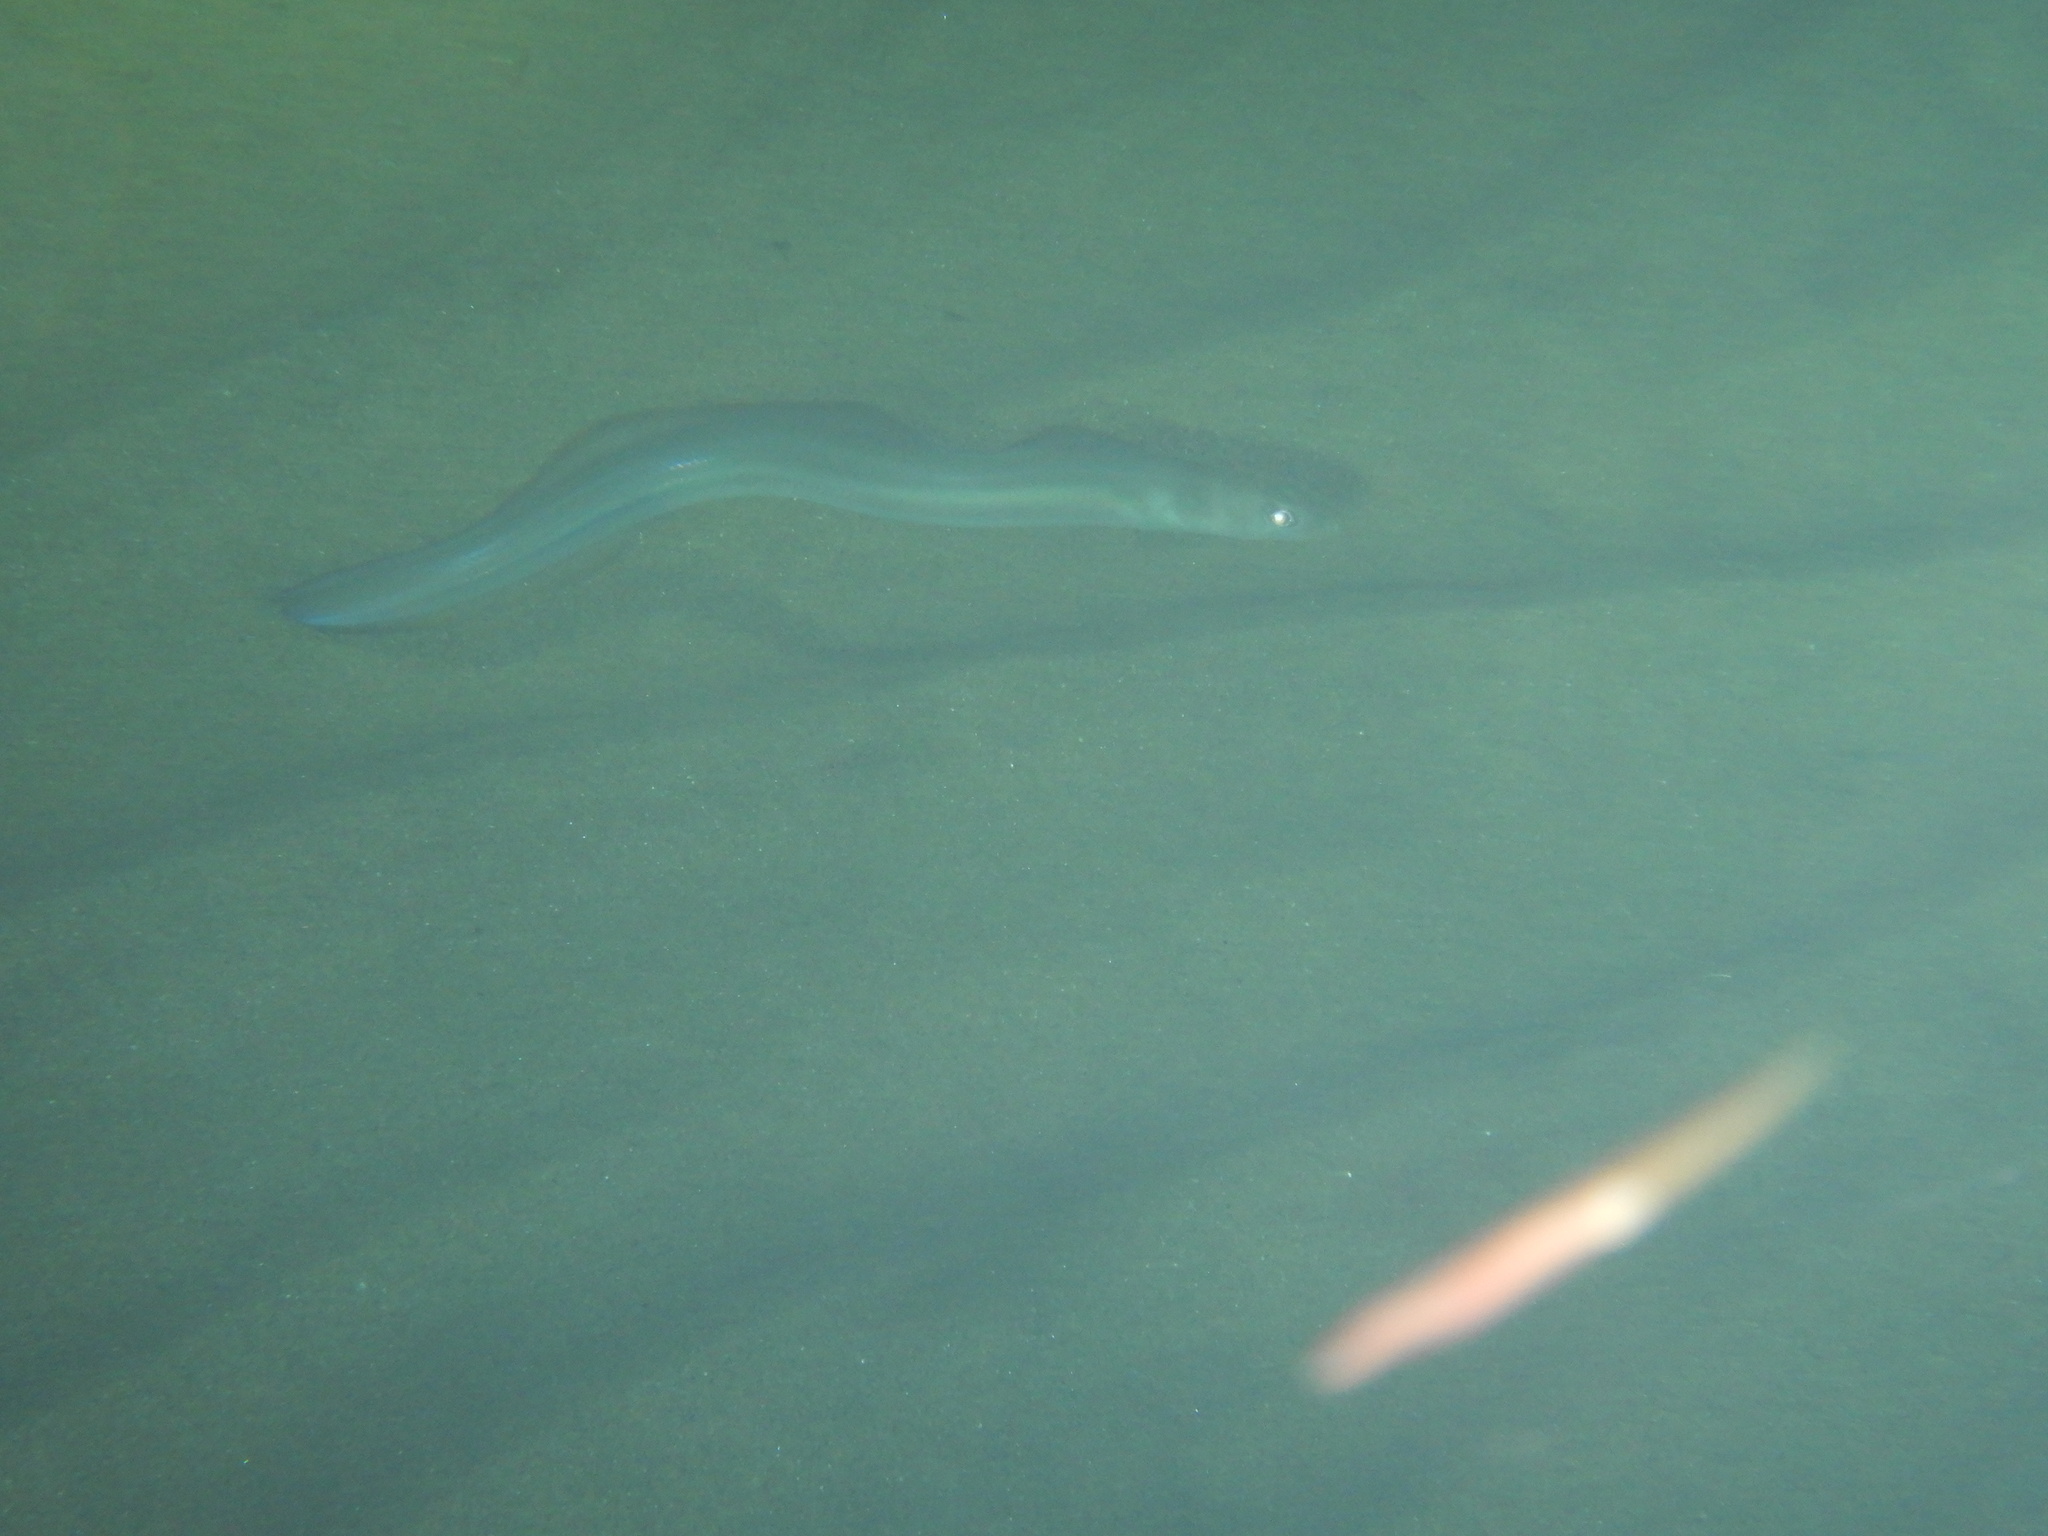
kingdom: Animalia
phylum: Chordata
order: Anguilliformes
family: Congridae
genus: Ariosoma
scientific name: Ariosoma balearicum
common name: Bandtooth conger
